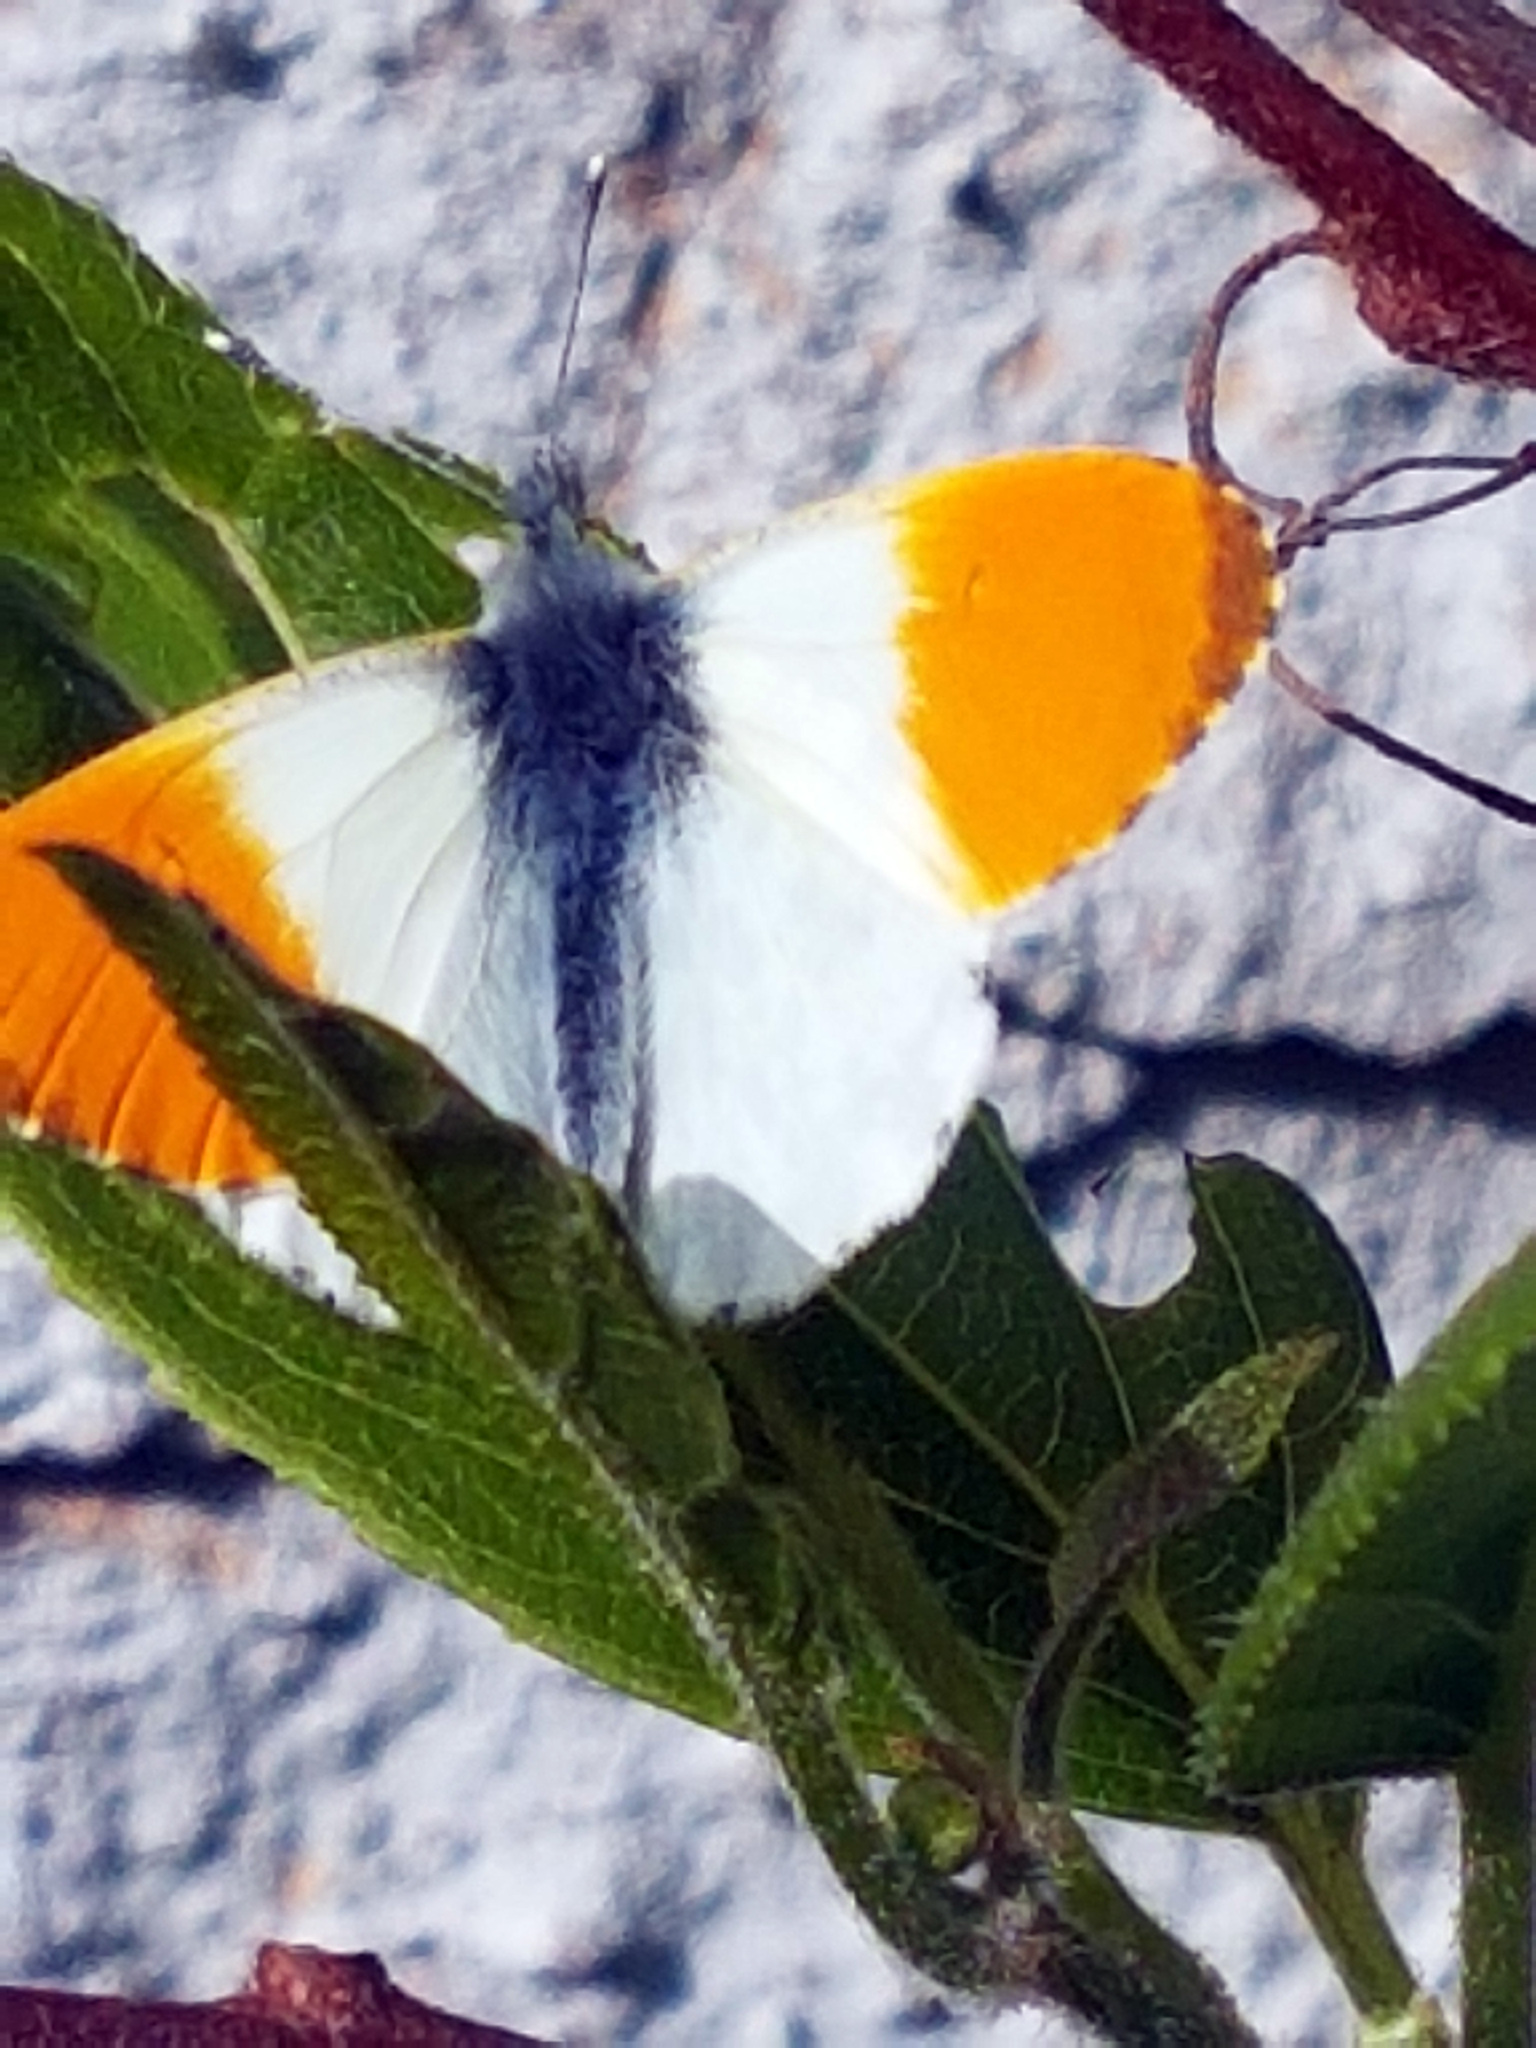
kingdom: Animalia
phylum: Arthropoda
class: Insecta
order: Lepidoptera
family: Pieridae
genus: Anthocharis
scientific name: Anthocharis cardamines
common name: Orange-tip
